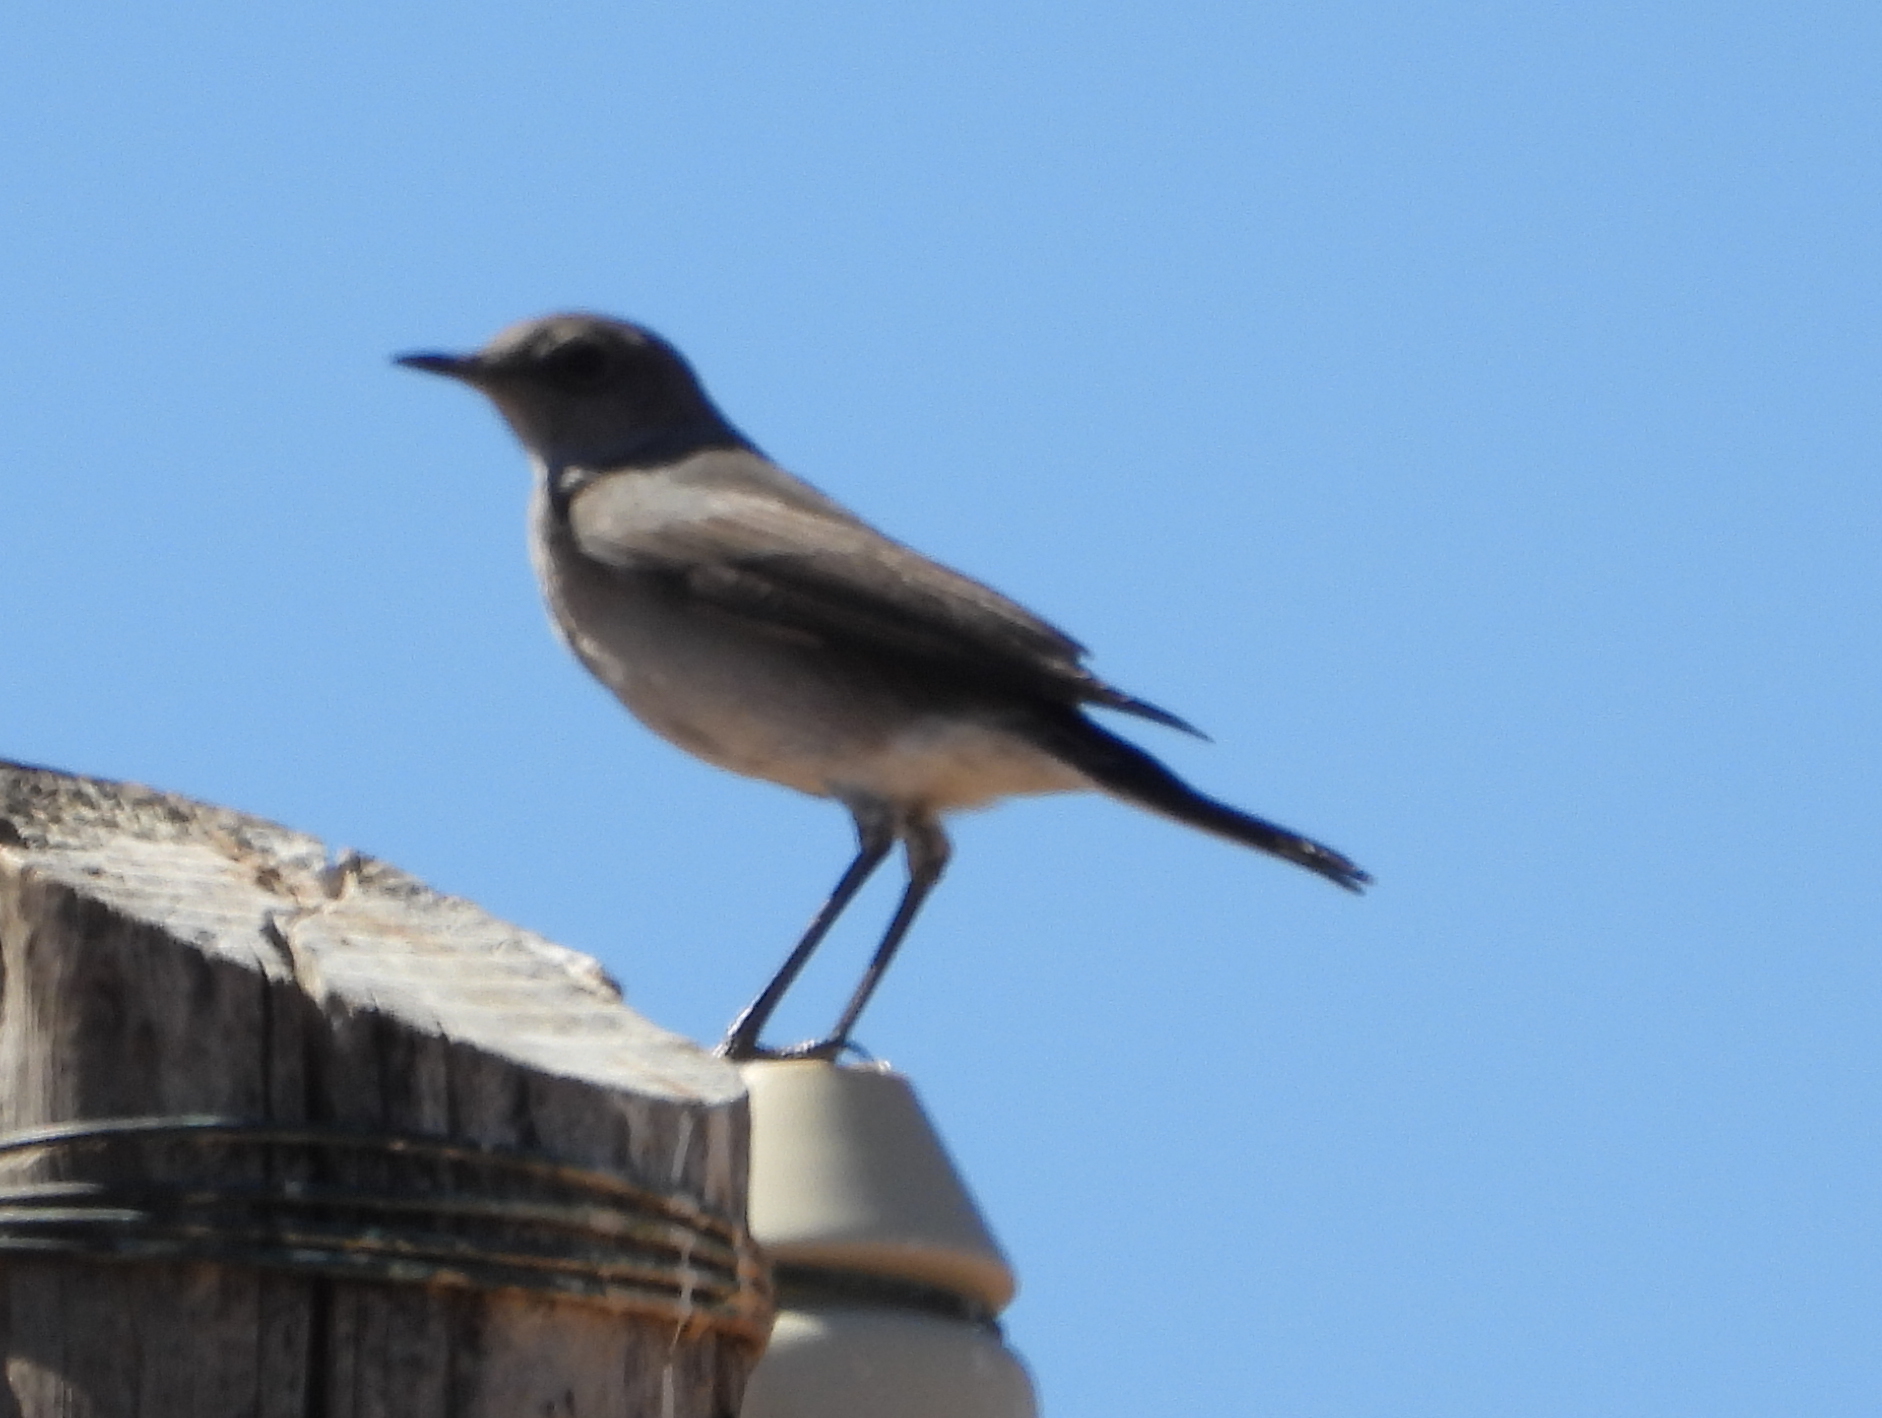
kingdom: Animalia
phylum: Chordata
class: Aves
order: Passeriformes
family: Muscicapidae
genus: Emarginata
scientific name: Emarginata schlegelii
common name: Karoo chat
